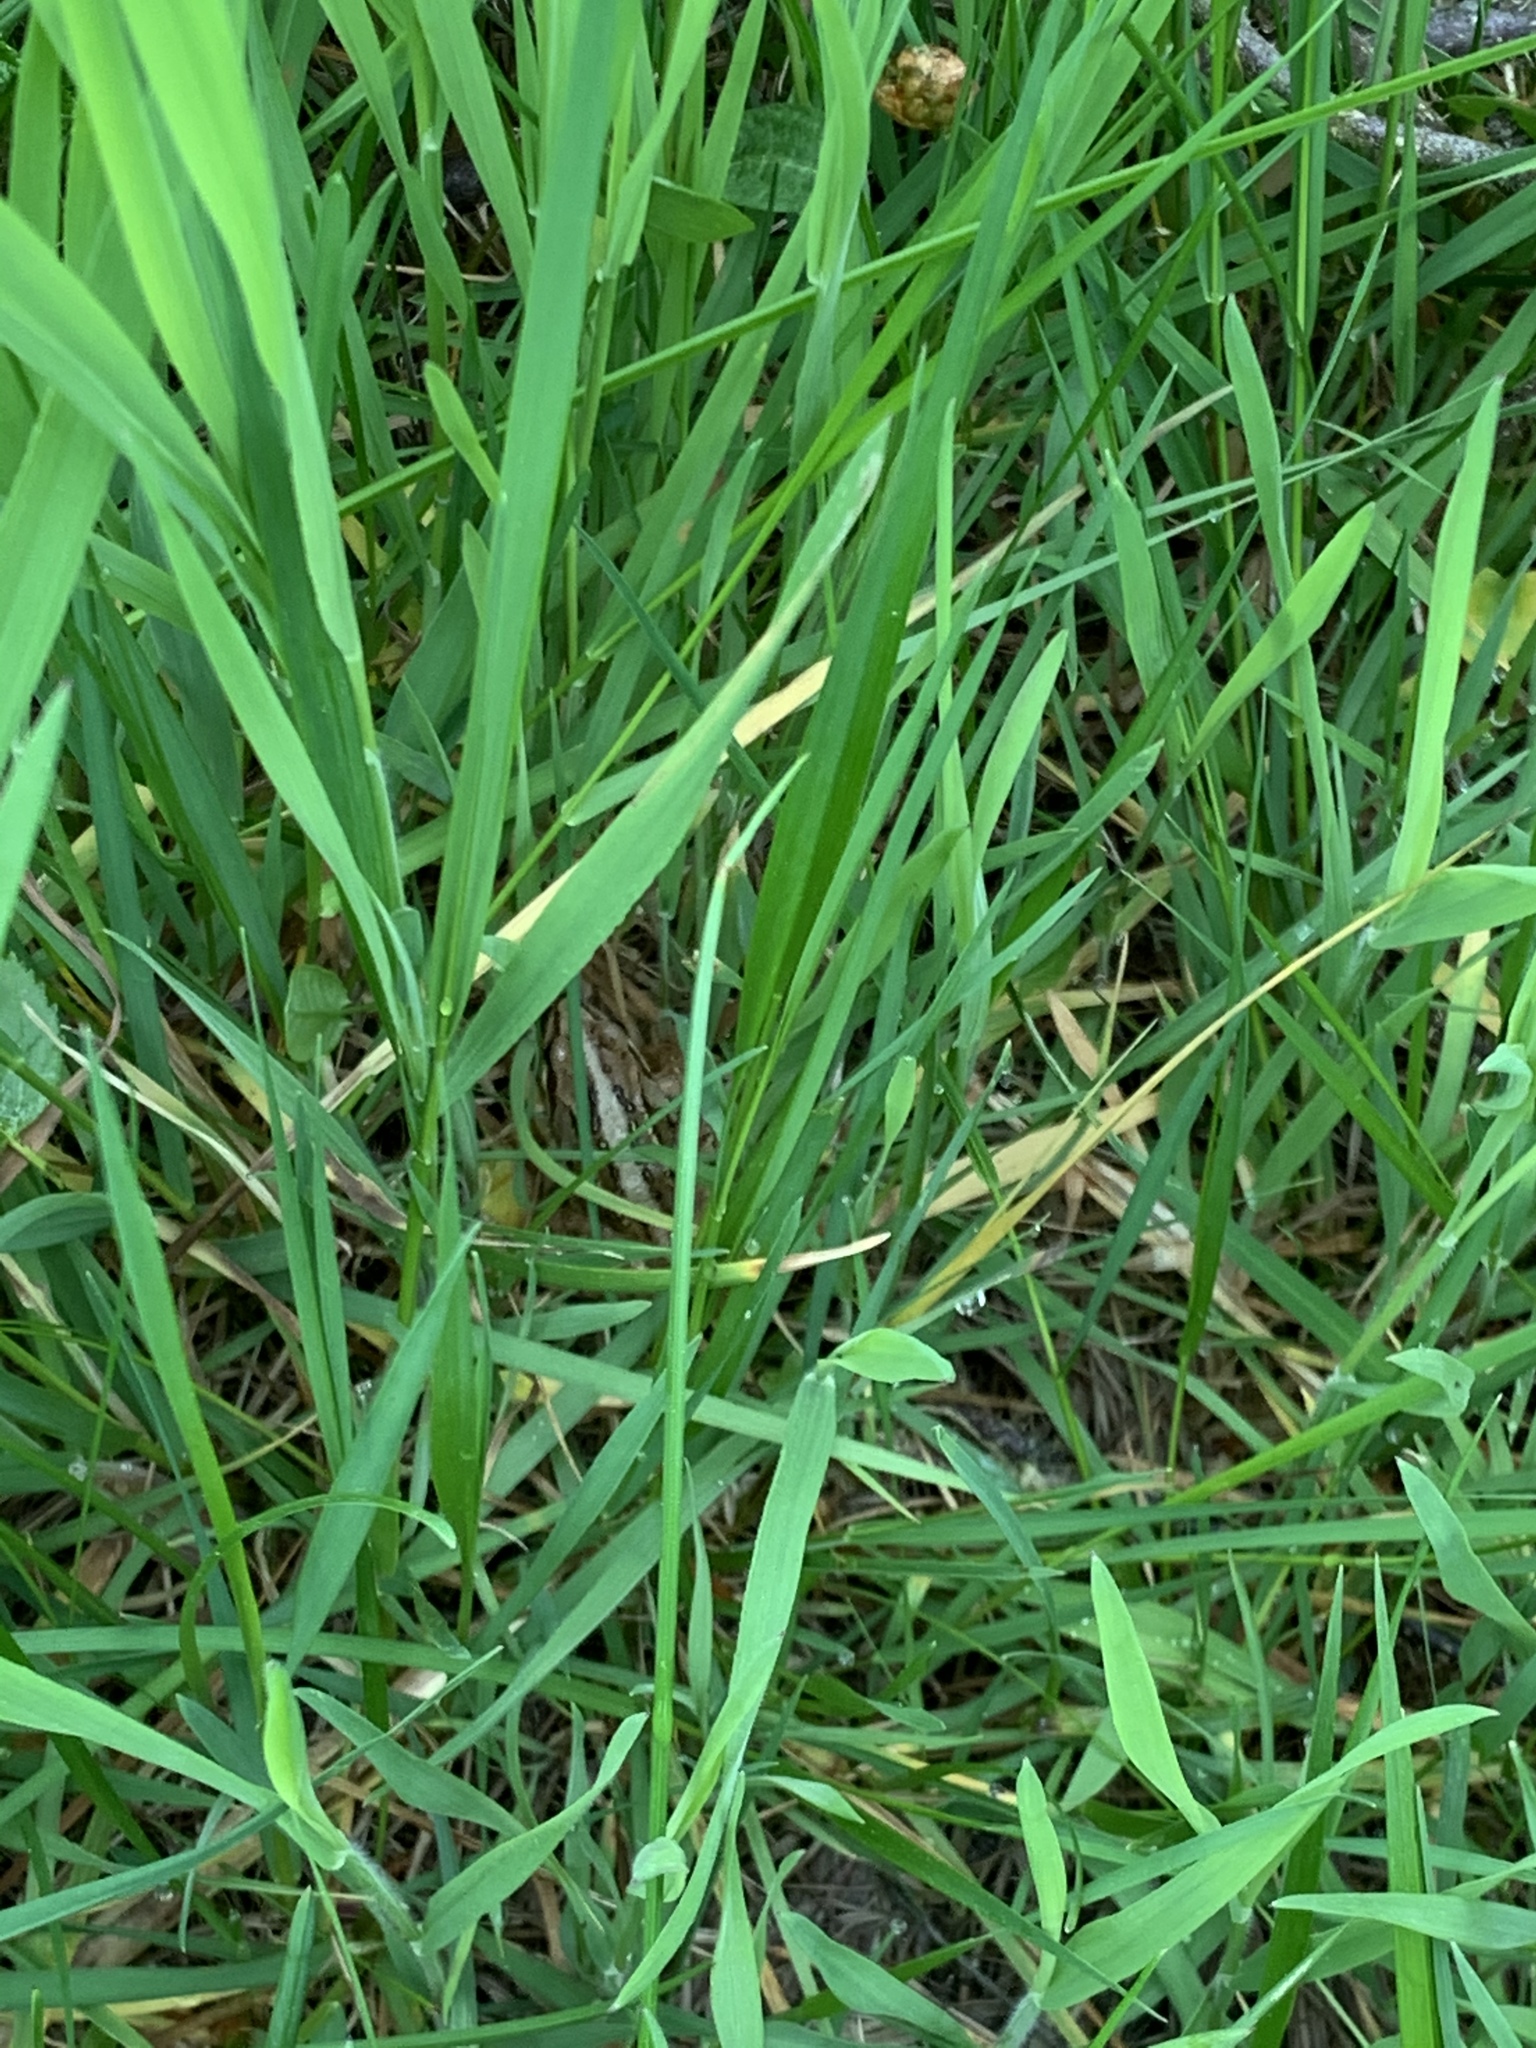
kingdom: Animalia
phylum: Chordata
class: Amphibia
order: Anura
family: Ranidae
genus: Rana
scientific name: Rana arvalis
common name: Moor frog
